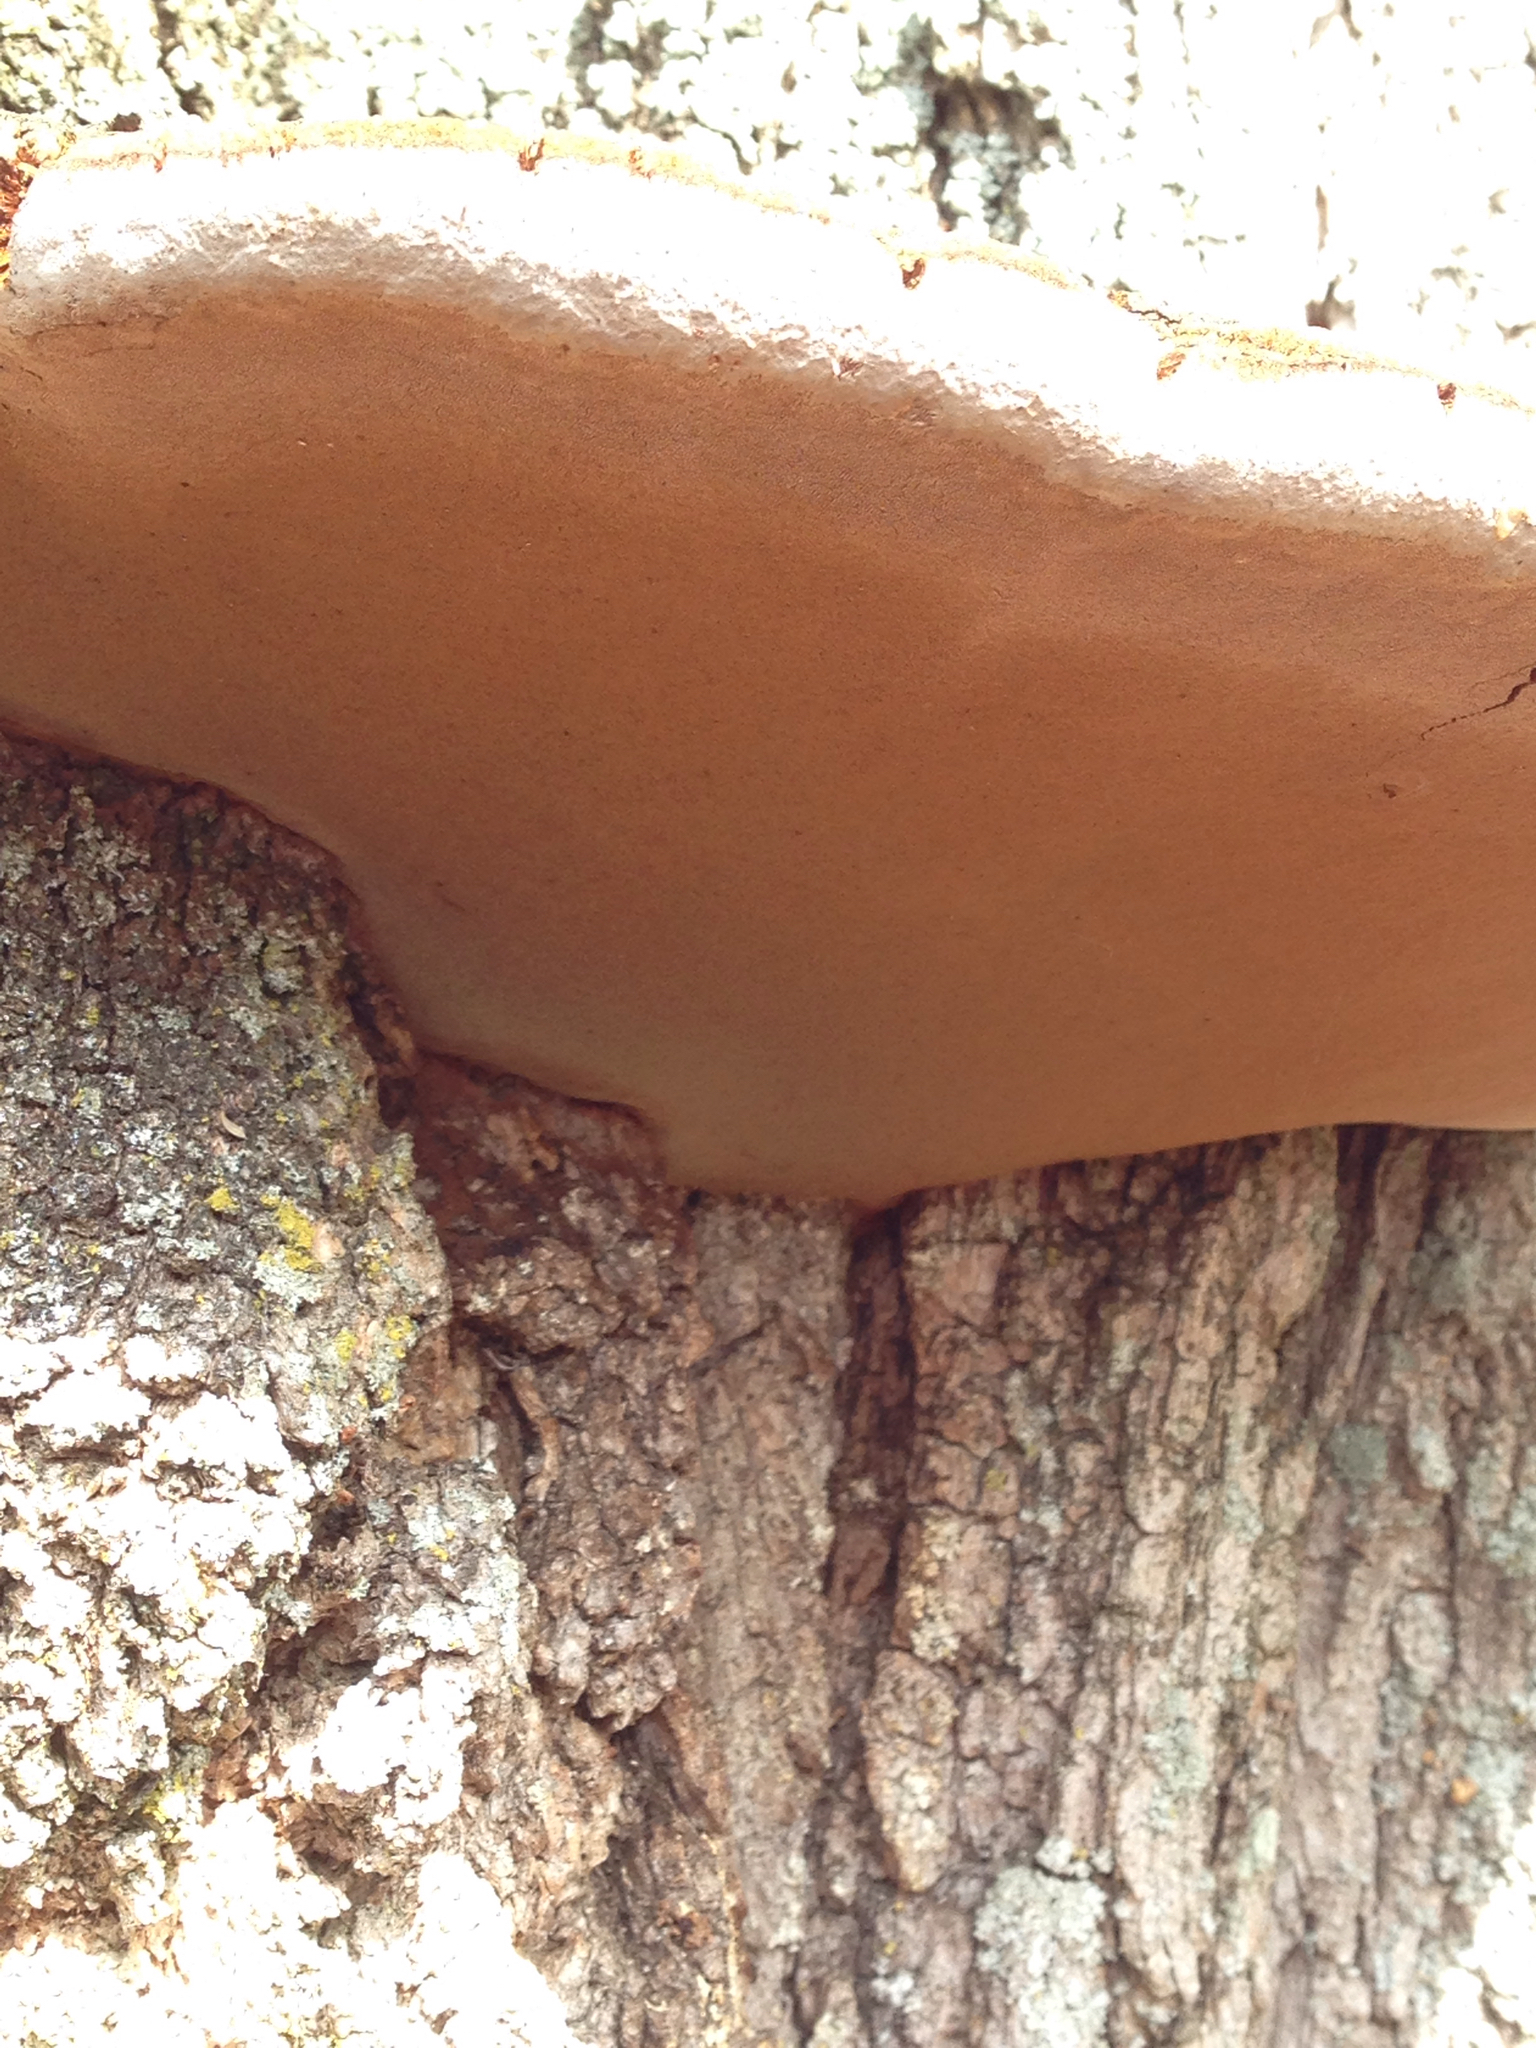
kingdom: Fungi
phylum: Basidiomycota
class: Agaricomycetes
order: Hymenochaetales
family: Hymenochaetaceae
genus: Phellinus
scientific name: Phellinus robiniae
